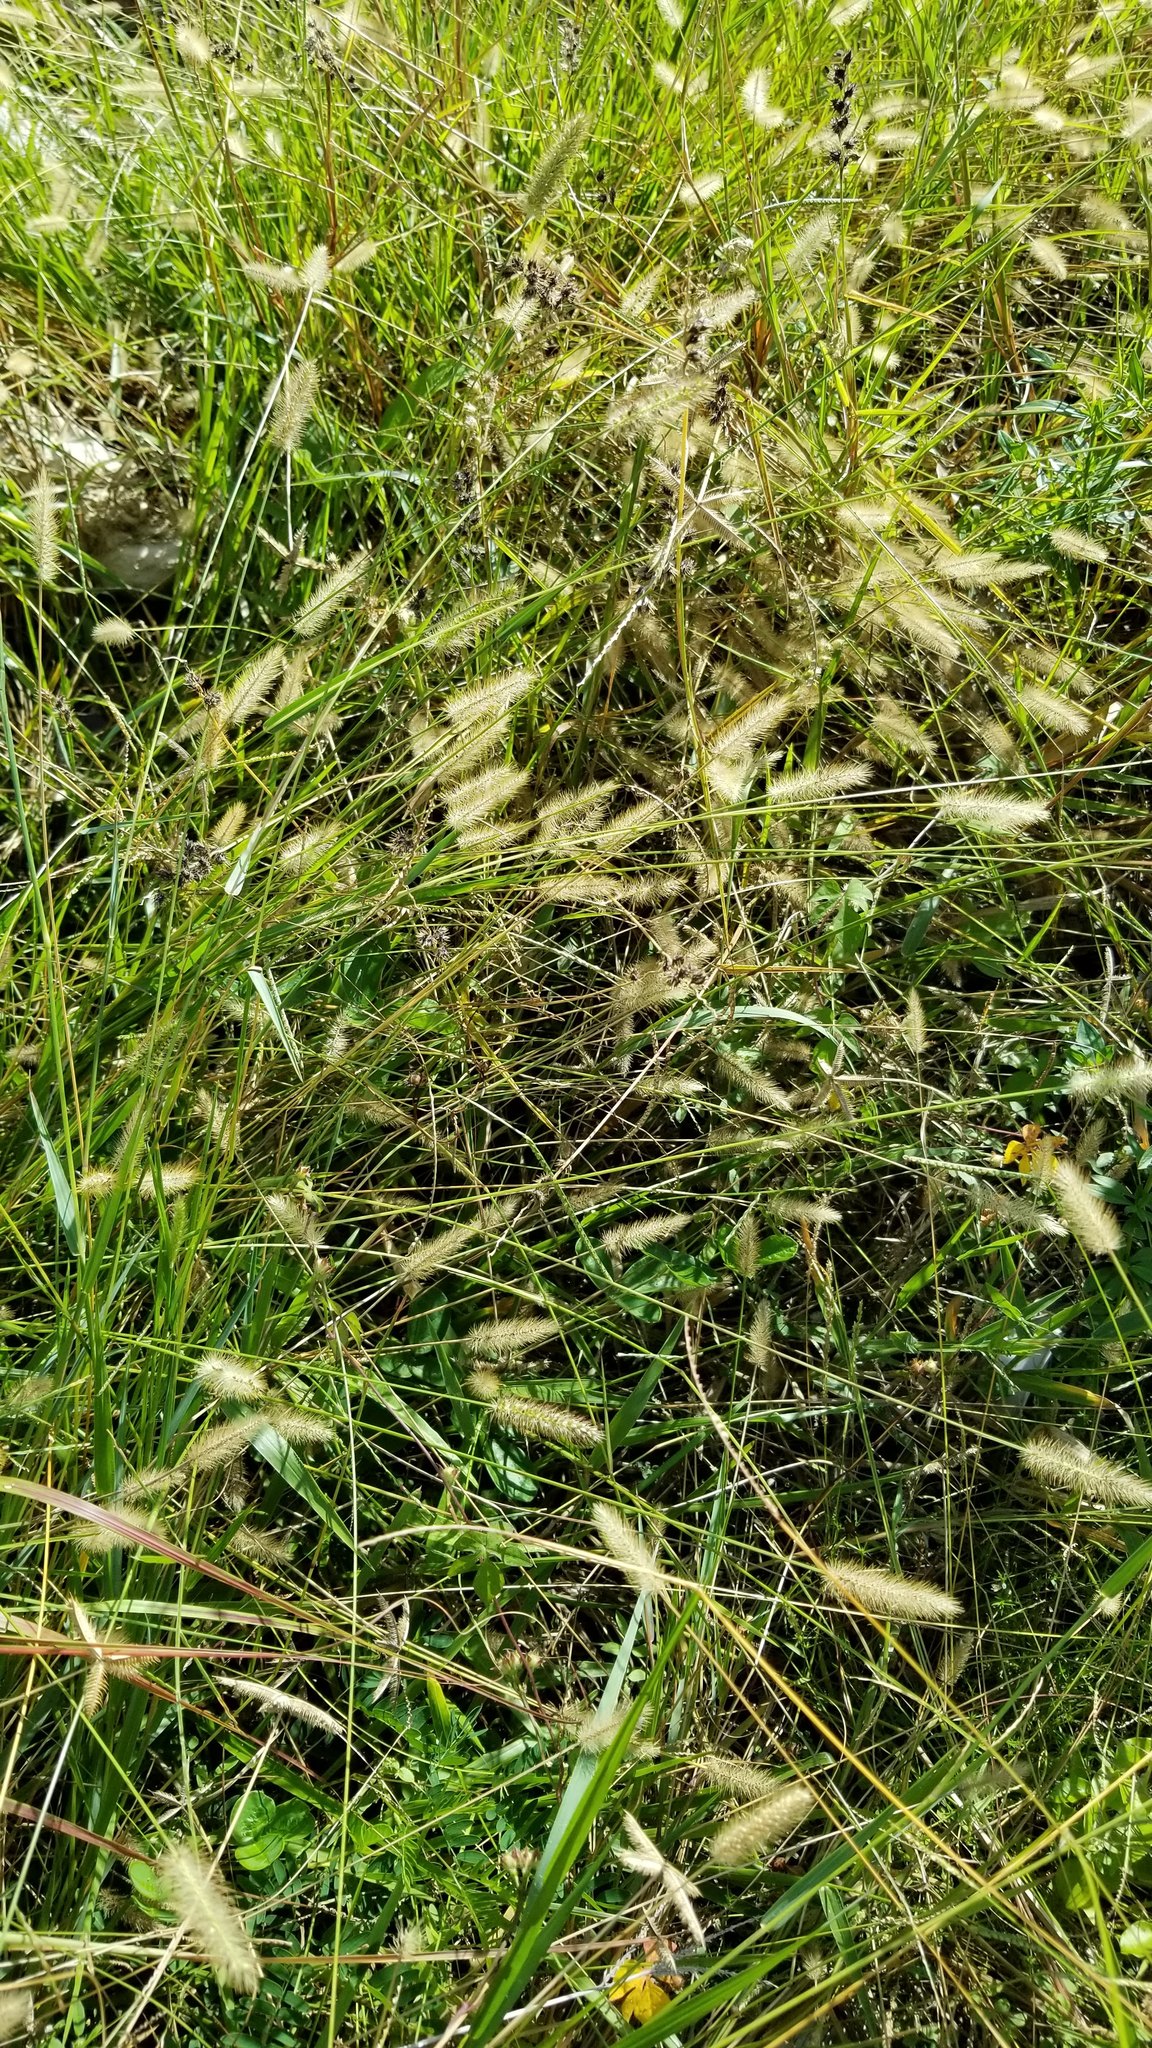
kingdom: Plantae
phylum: Tracheophyta
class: Liliopsida
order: Poales
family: Poaceae
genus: Setaria
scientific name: Setaria parviflora
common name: Knotroot bristle-grass
